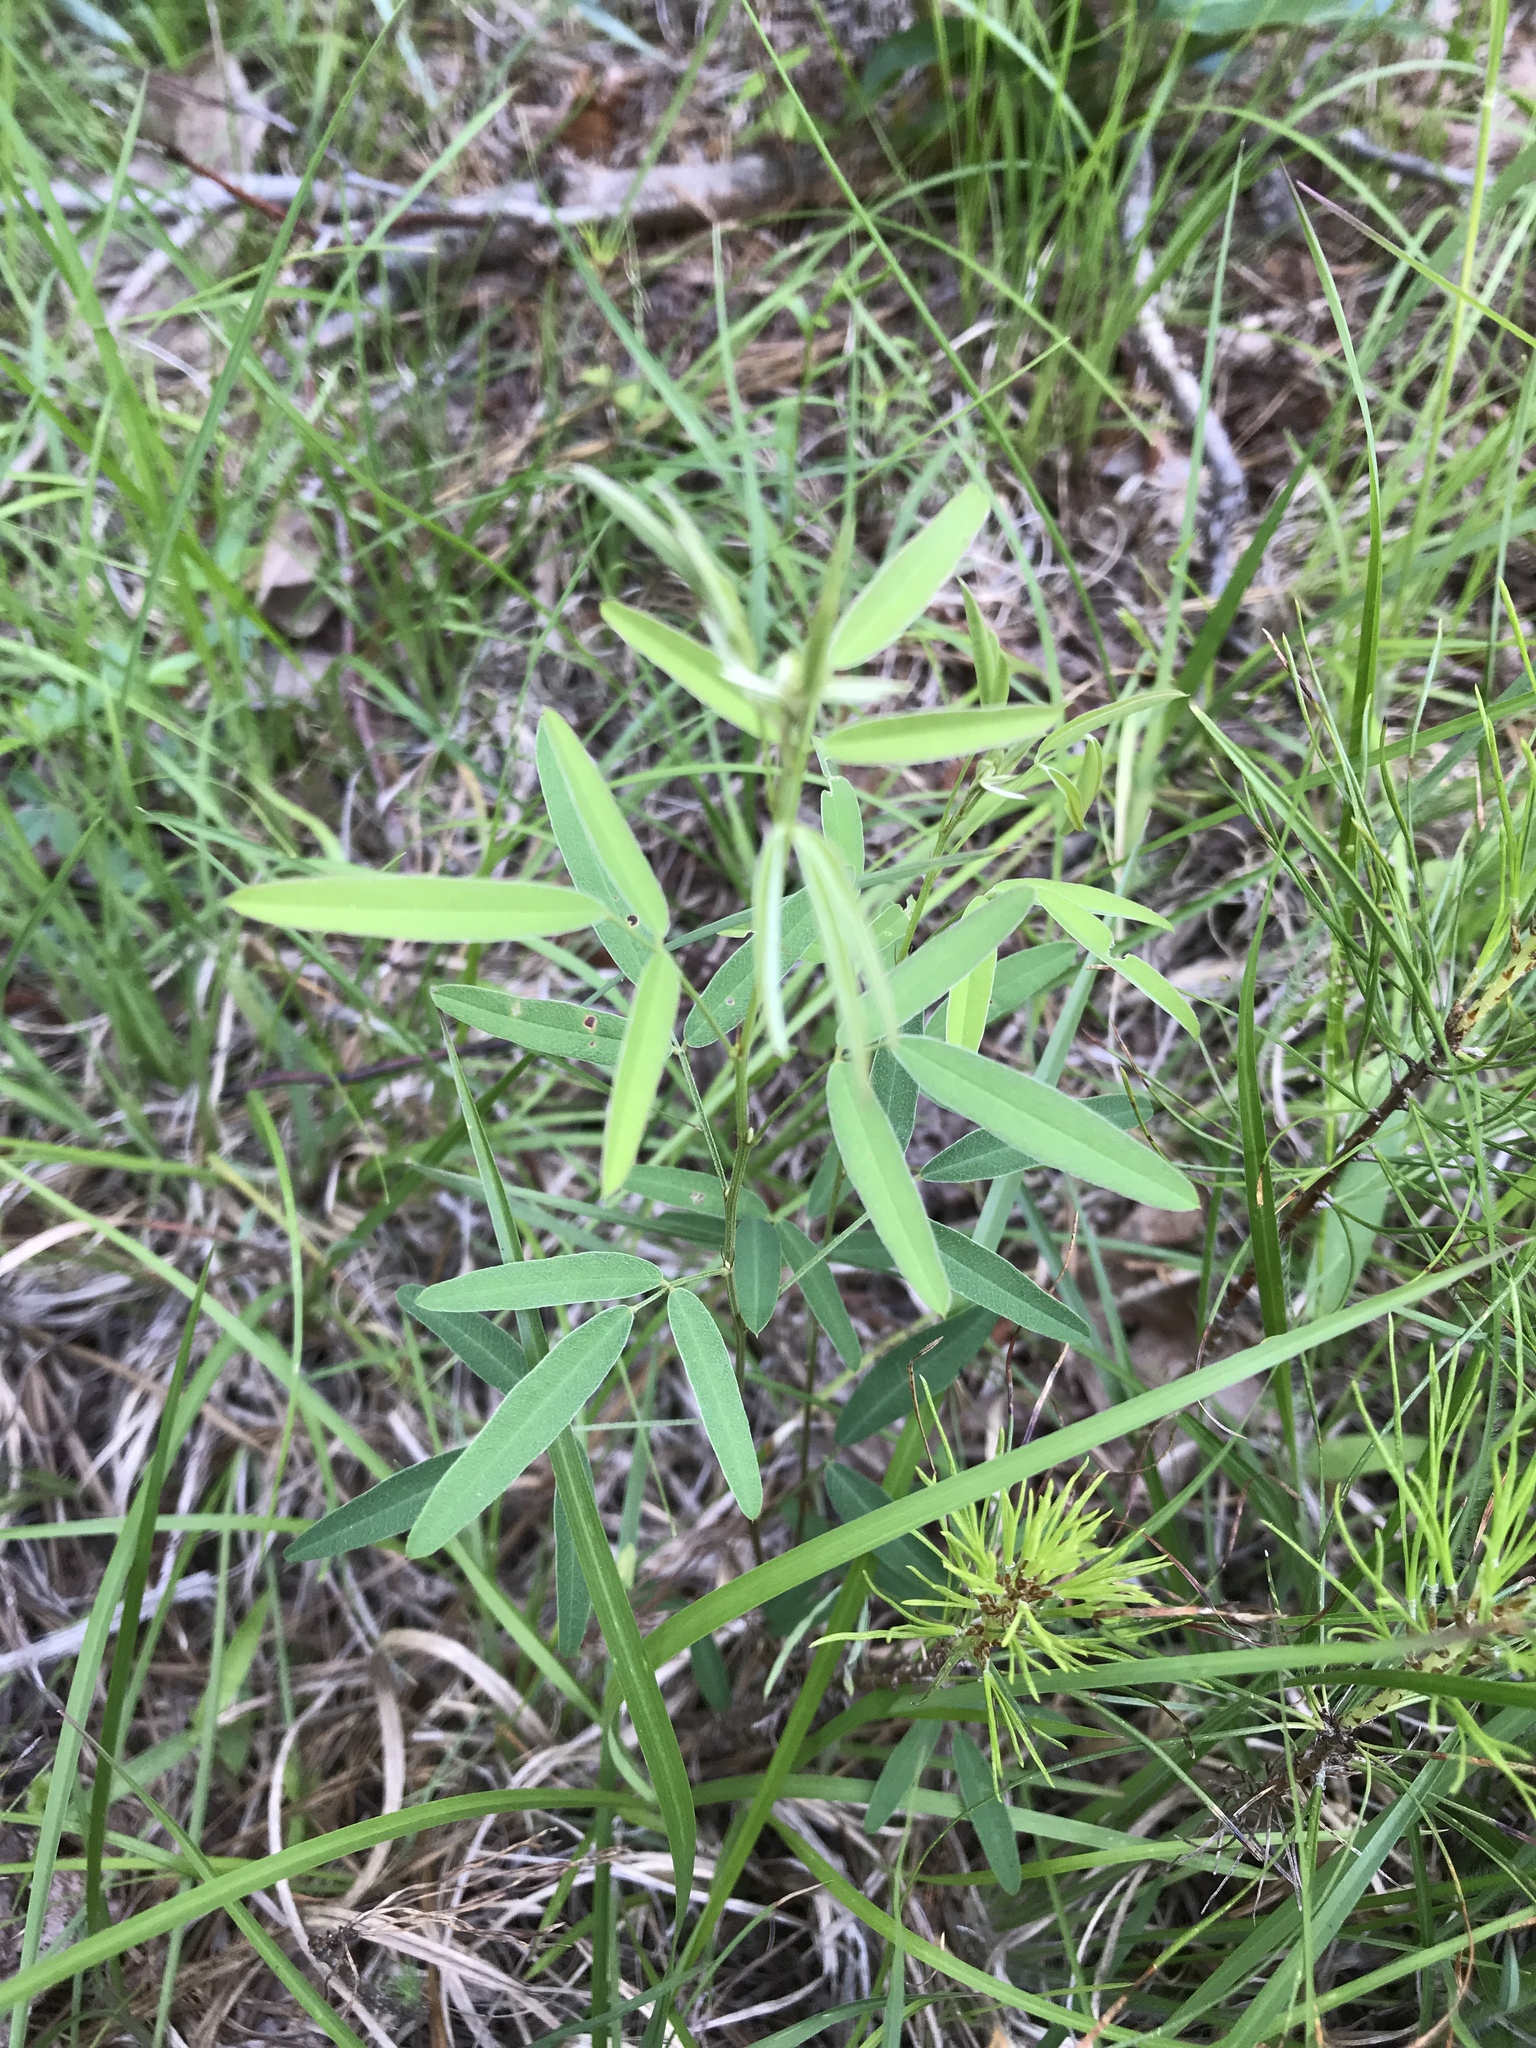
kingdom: Plantae
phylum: Tracheophyta
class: Magnoliopsida
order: Fabales
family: Fabaceae
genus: Lespedeza
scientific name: Lespedeza virginica
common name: Slender bush-clover
